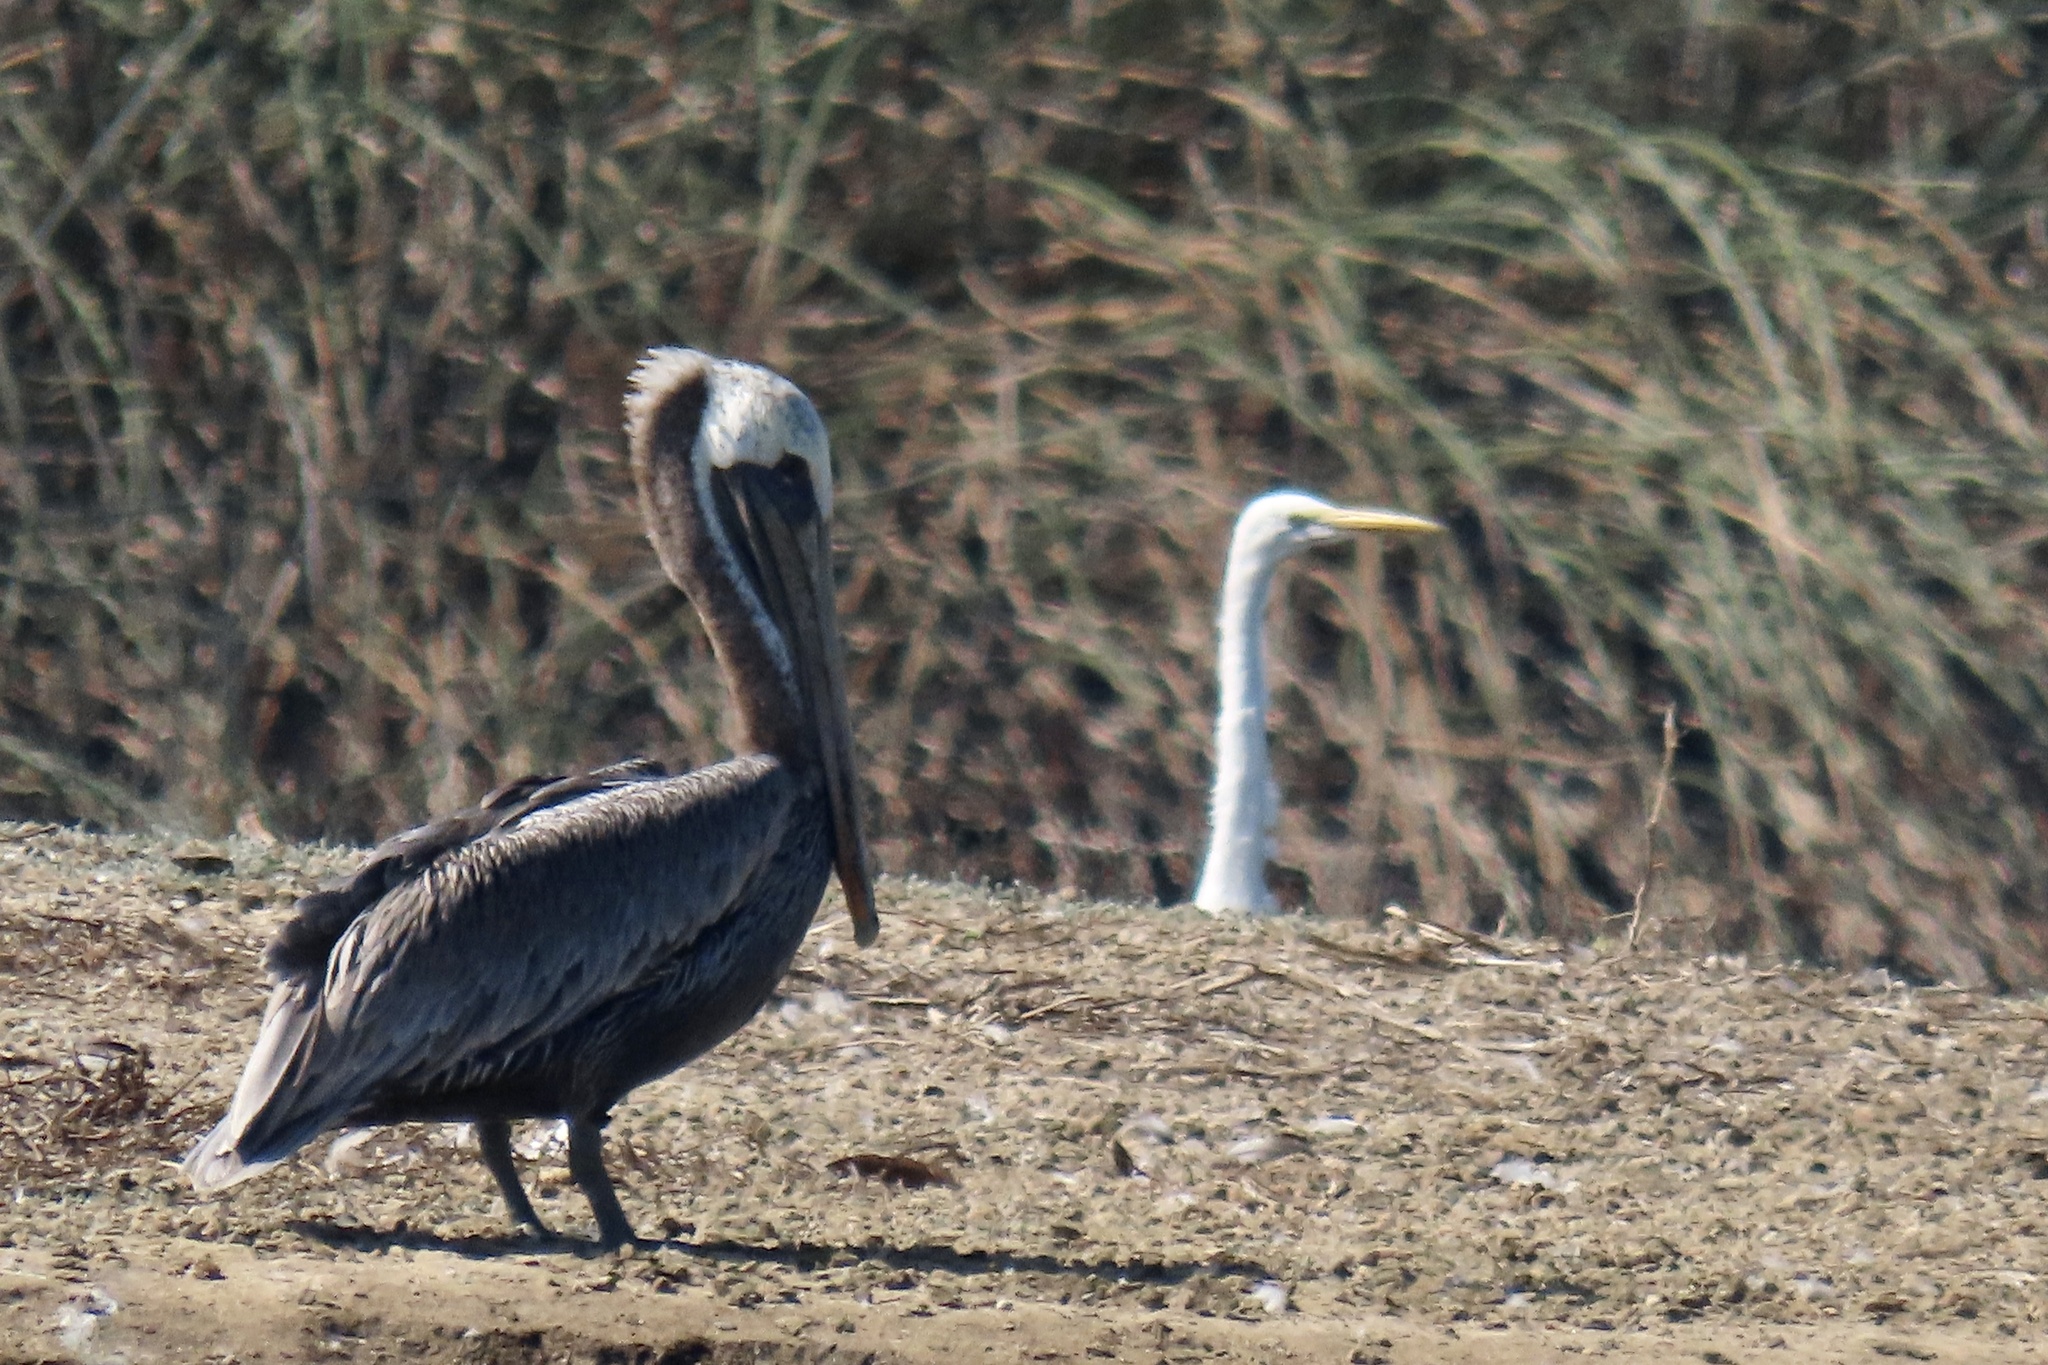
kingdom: Animalia
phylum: Chordata
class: Aves
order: Pelecaniformes
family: Pelecanidae
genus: Pelecanus
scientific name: Pelecanus occidentalis
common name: Brown pelican
